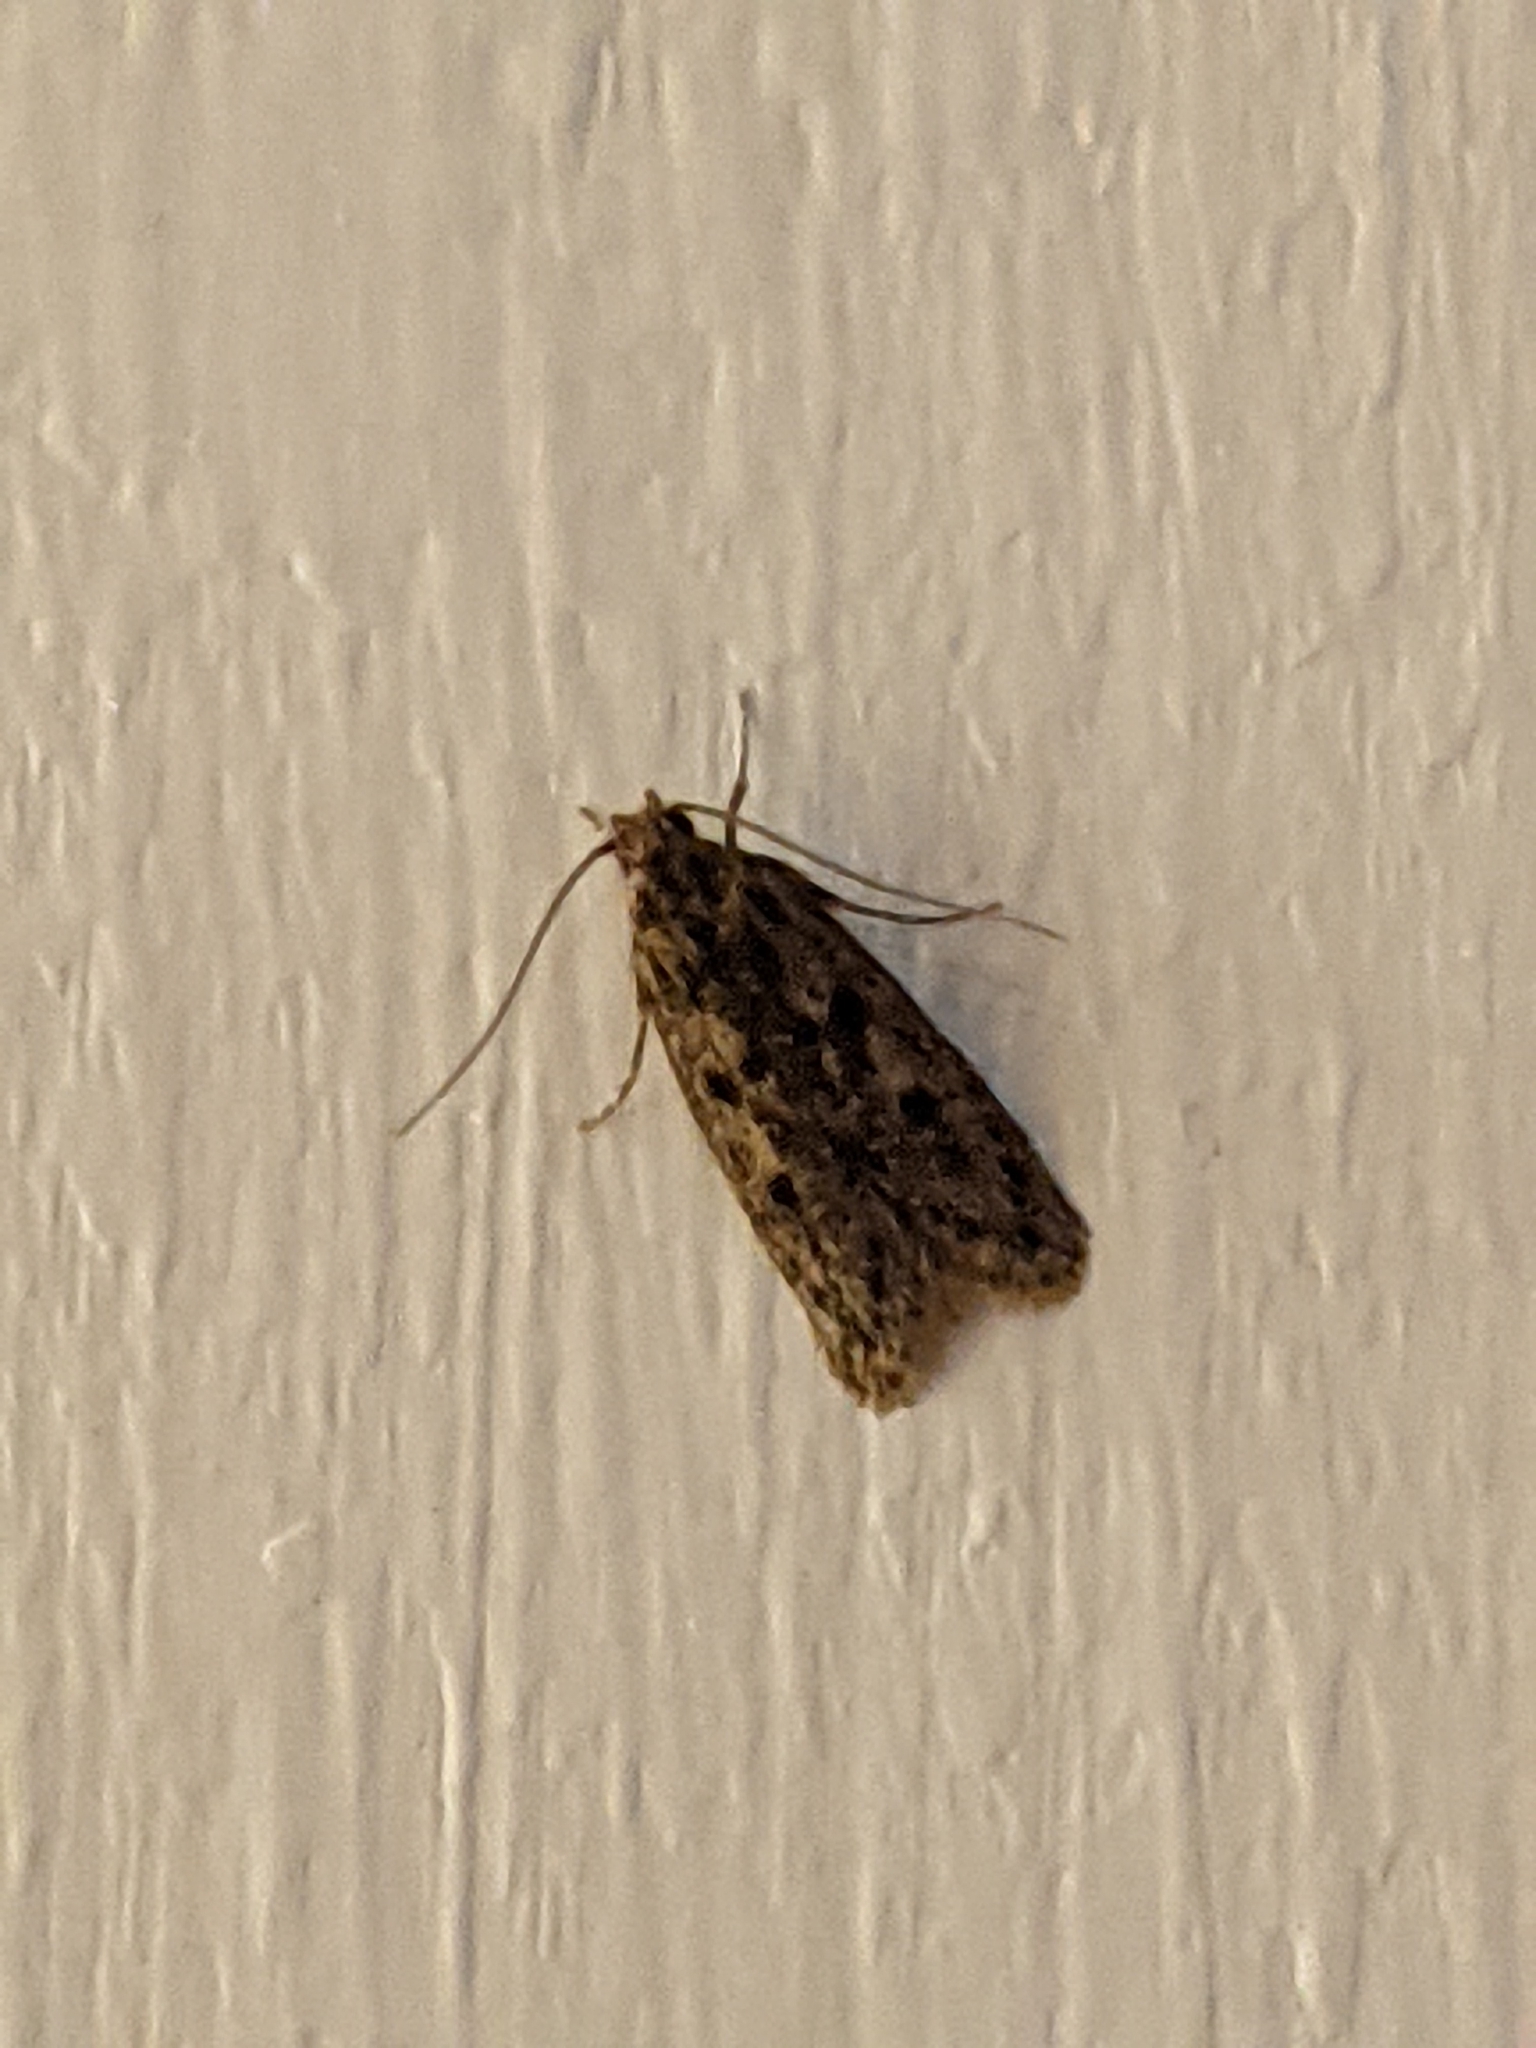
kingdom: Animalia
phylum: Arthropoda
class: Insecta
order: Lepidoptera
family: Oecophoridae
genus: Hofmannophila
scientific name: Hofmannophila pseudospretella
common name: Brown house moth
